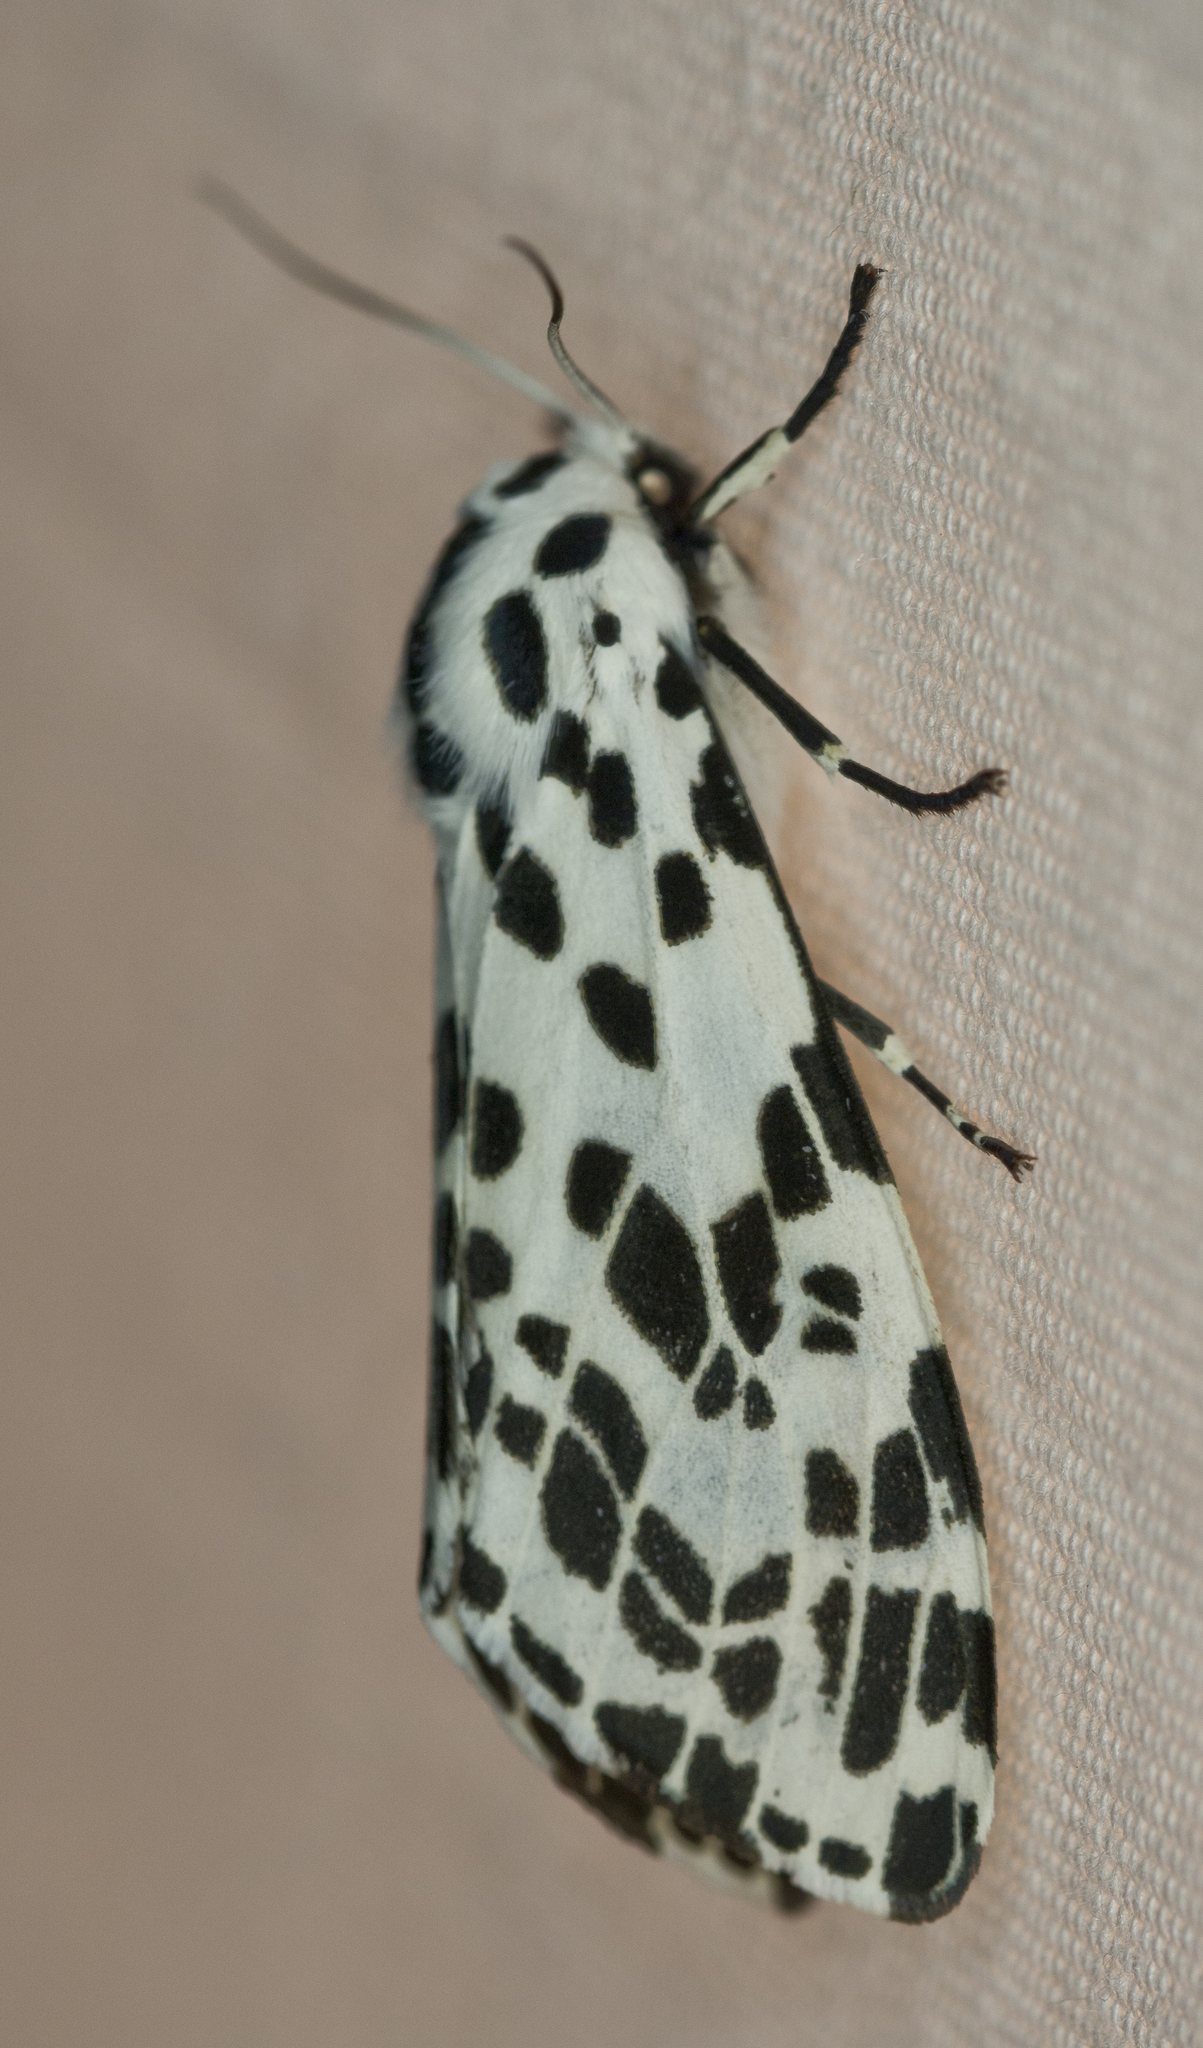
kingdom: Animalia
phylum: Arthropoda
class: Insecta
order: Lepidoptera
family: Erebidae
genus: Hypercompe
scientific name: Hypercompe permaculata
